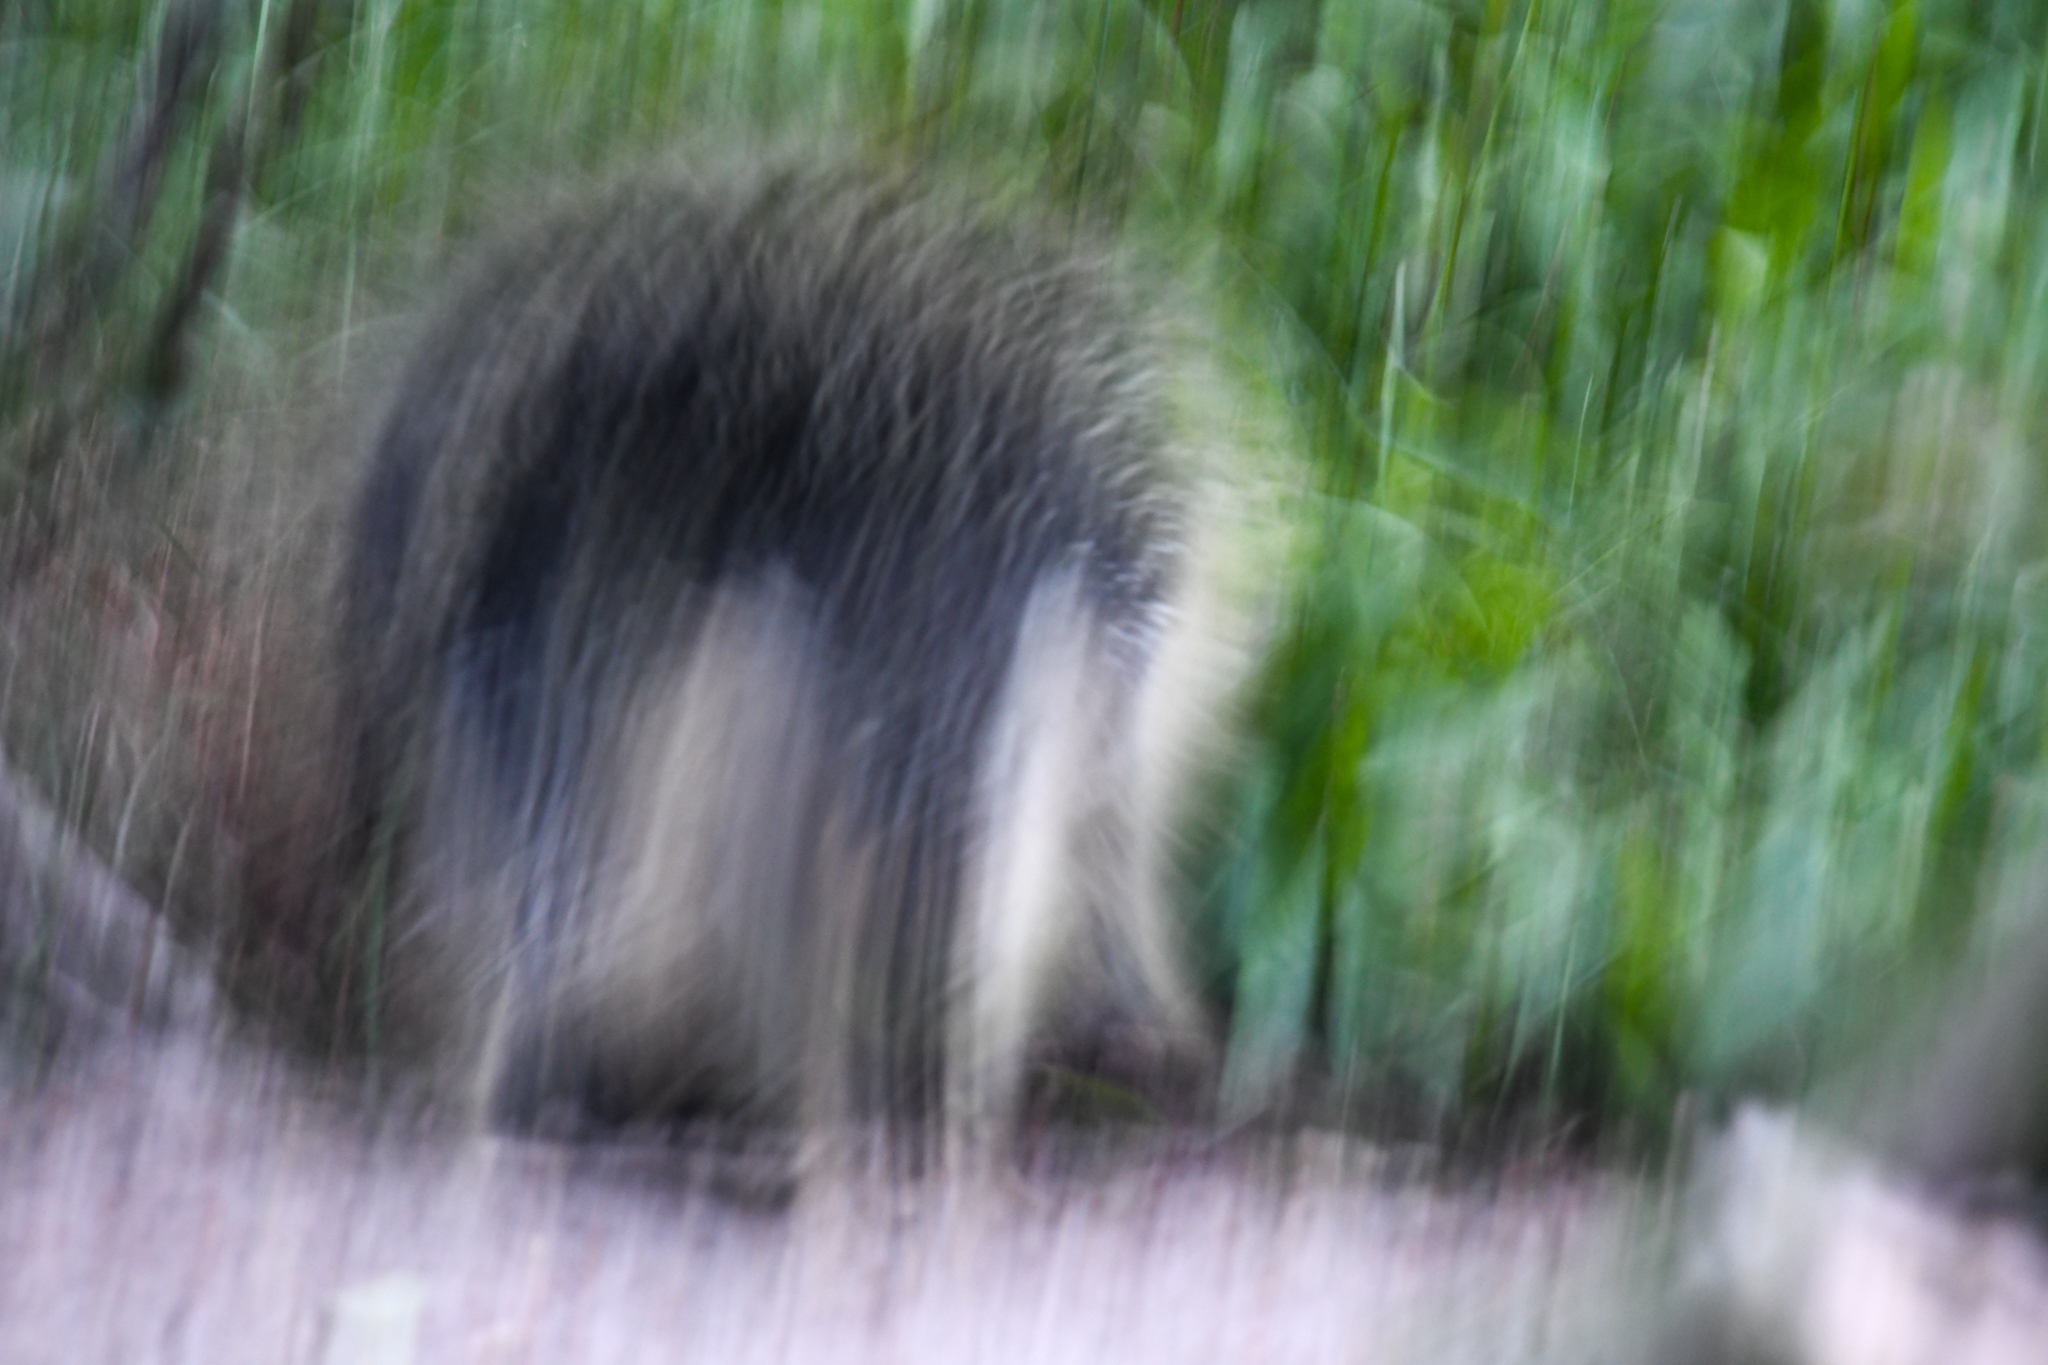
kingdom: Animalia
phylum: Chordata
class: Mammalia
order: Rodentia
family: Erethizontidae
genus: Erethizon
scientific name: Erethizon dorsatus
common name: North american porcupine
